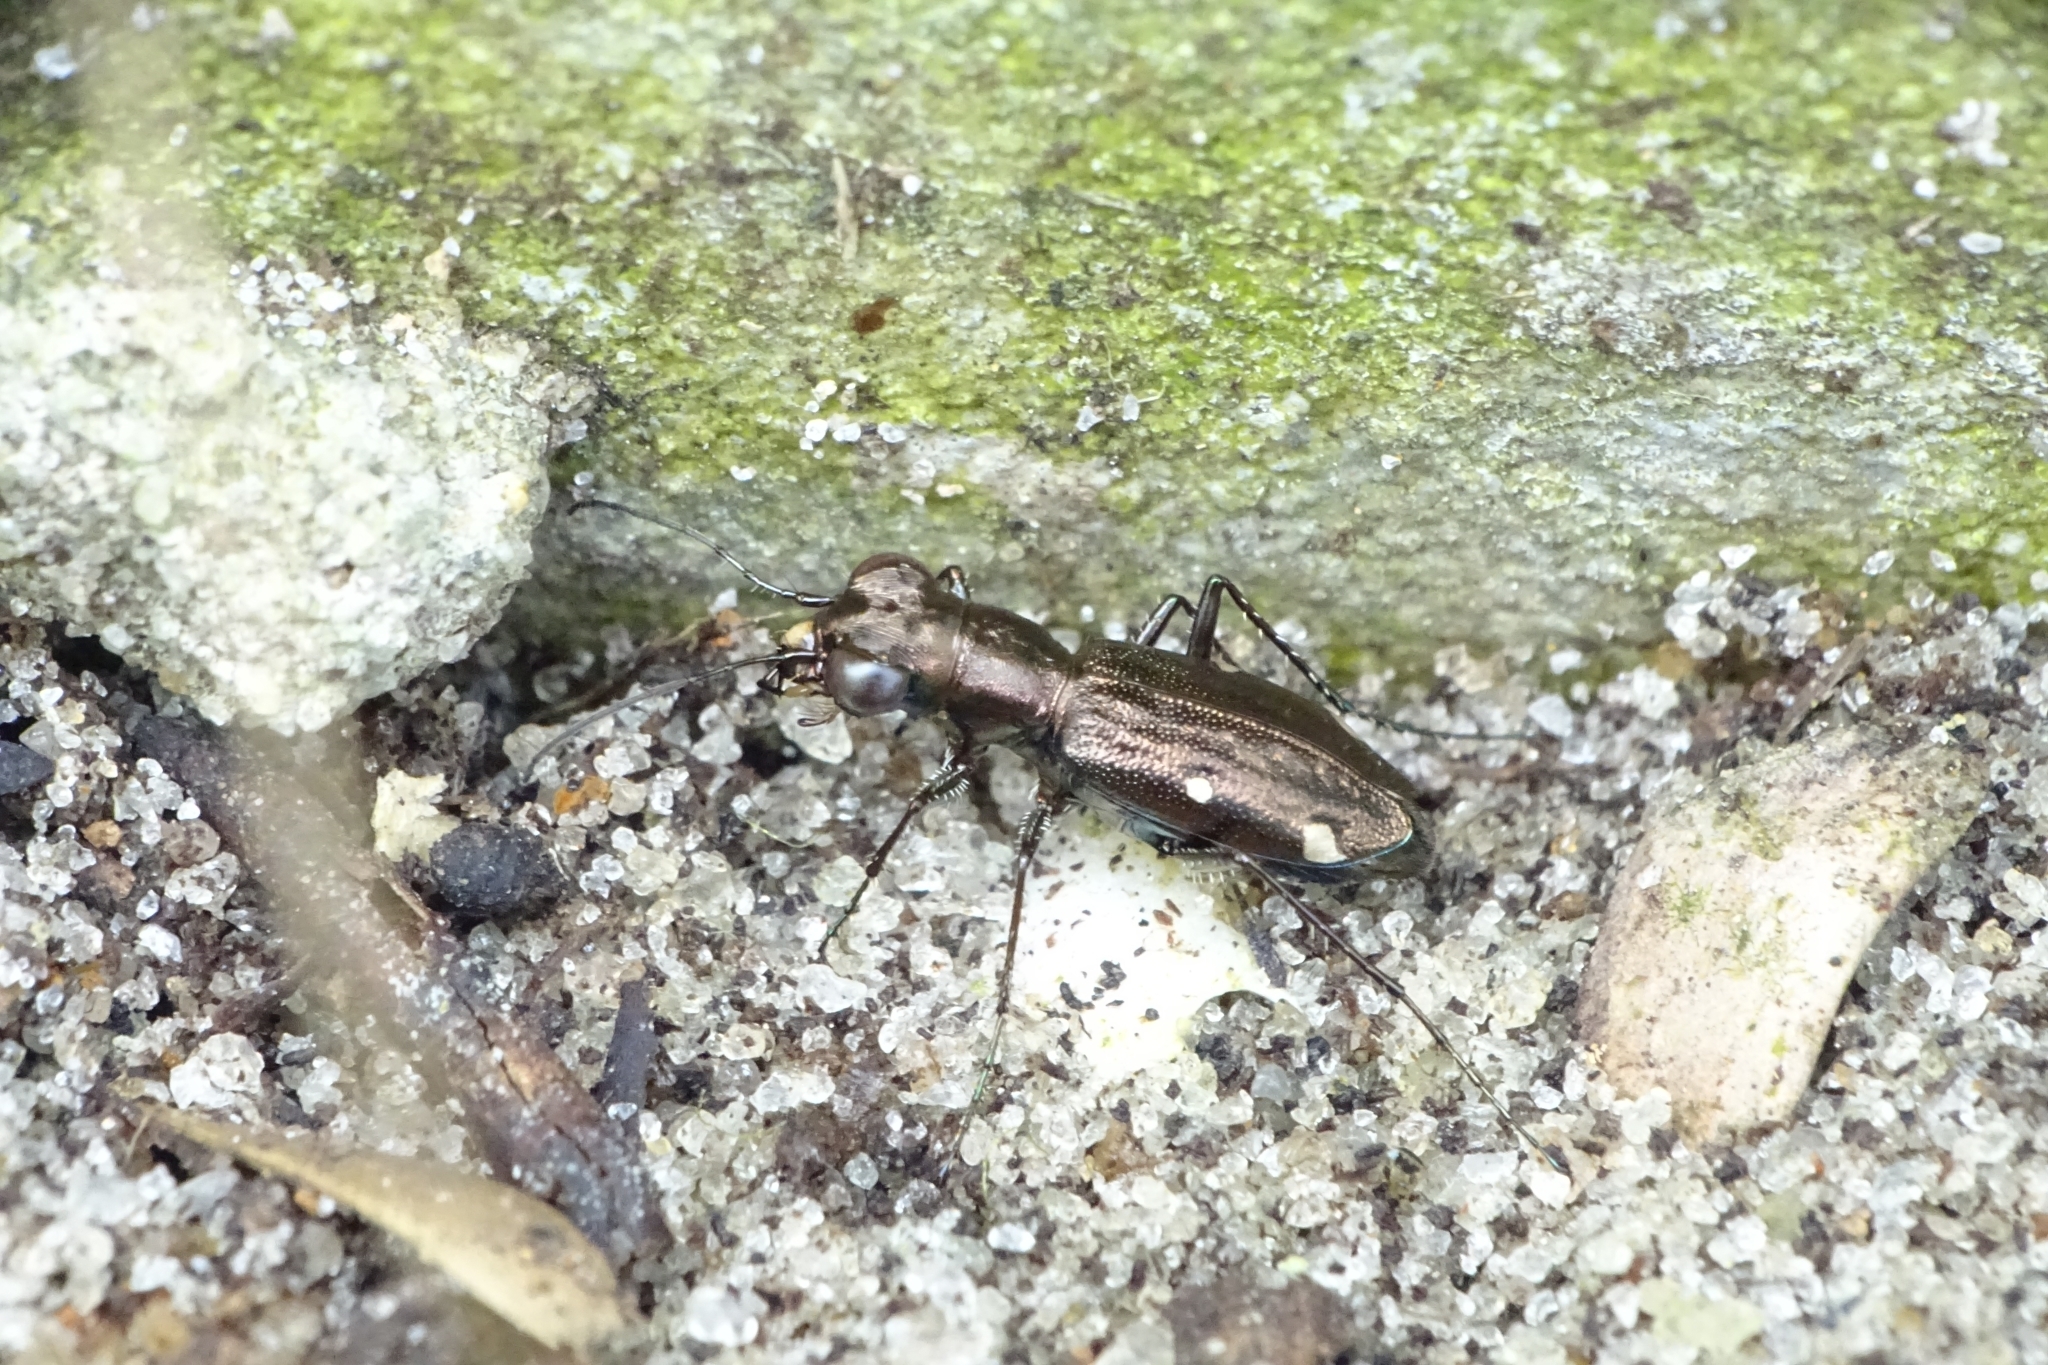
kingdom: Animalia
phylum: Arthropoda
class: Insecta
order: Coleoptera
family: Carabidae
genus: Cylindera
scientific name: Cylindera paradoxa
